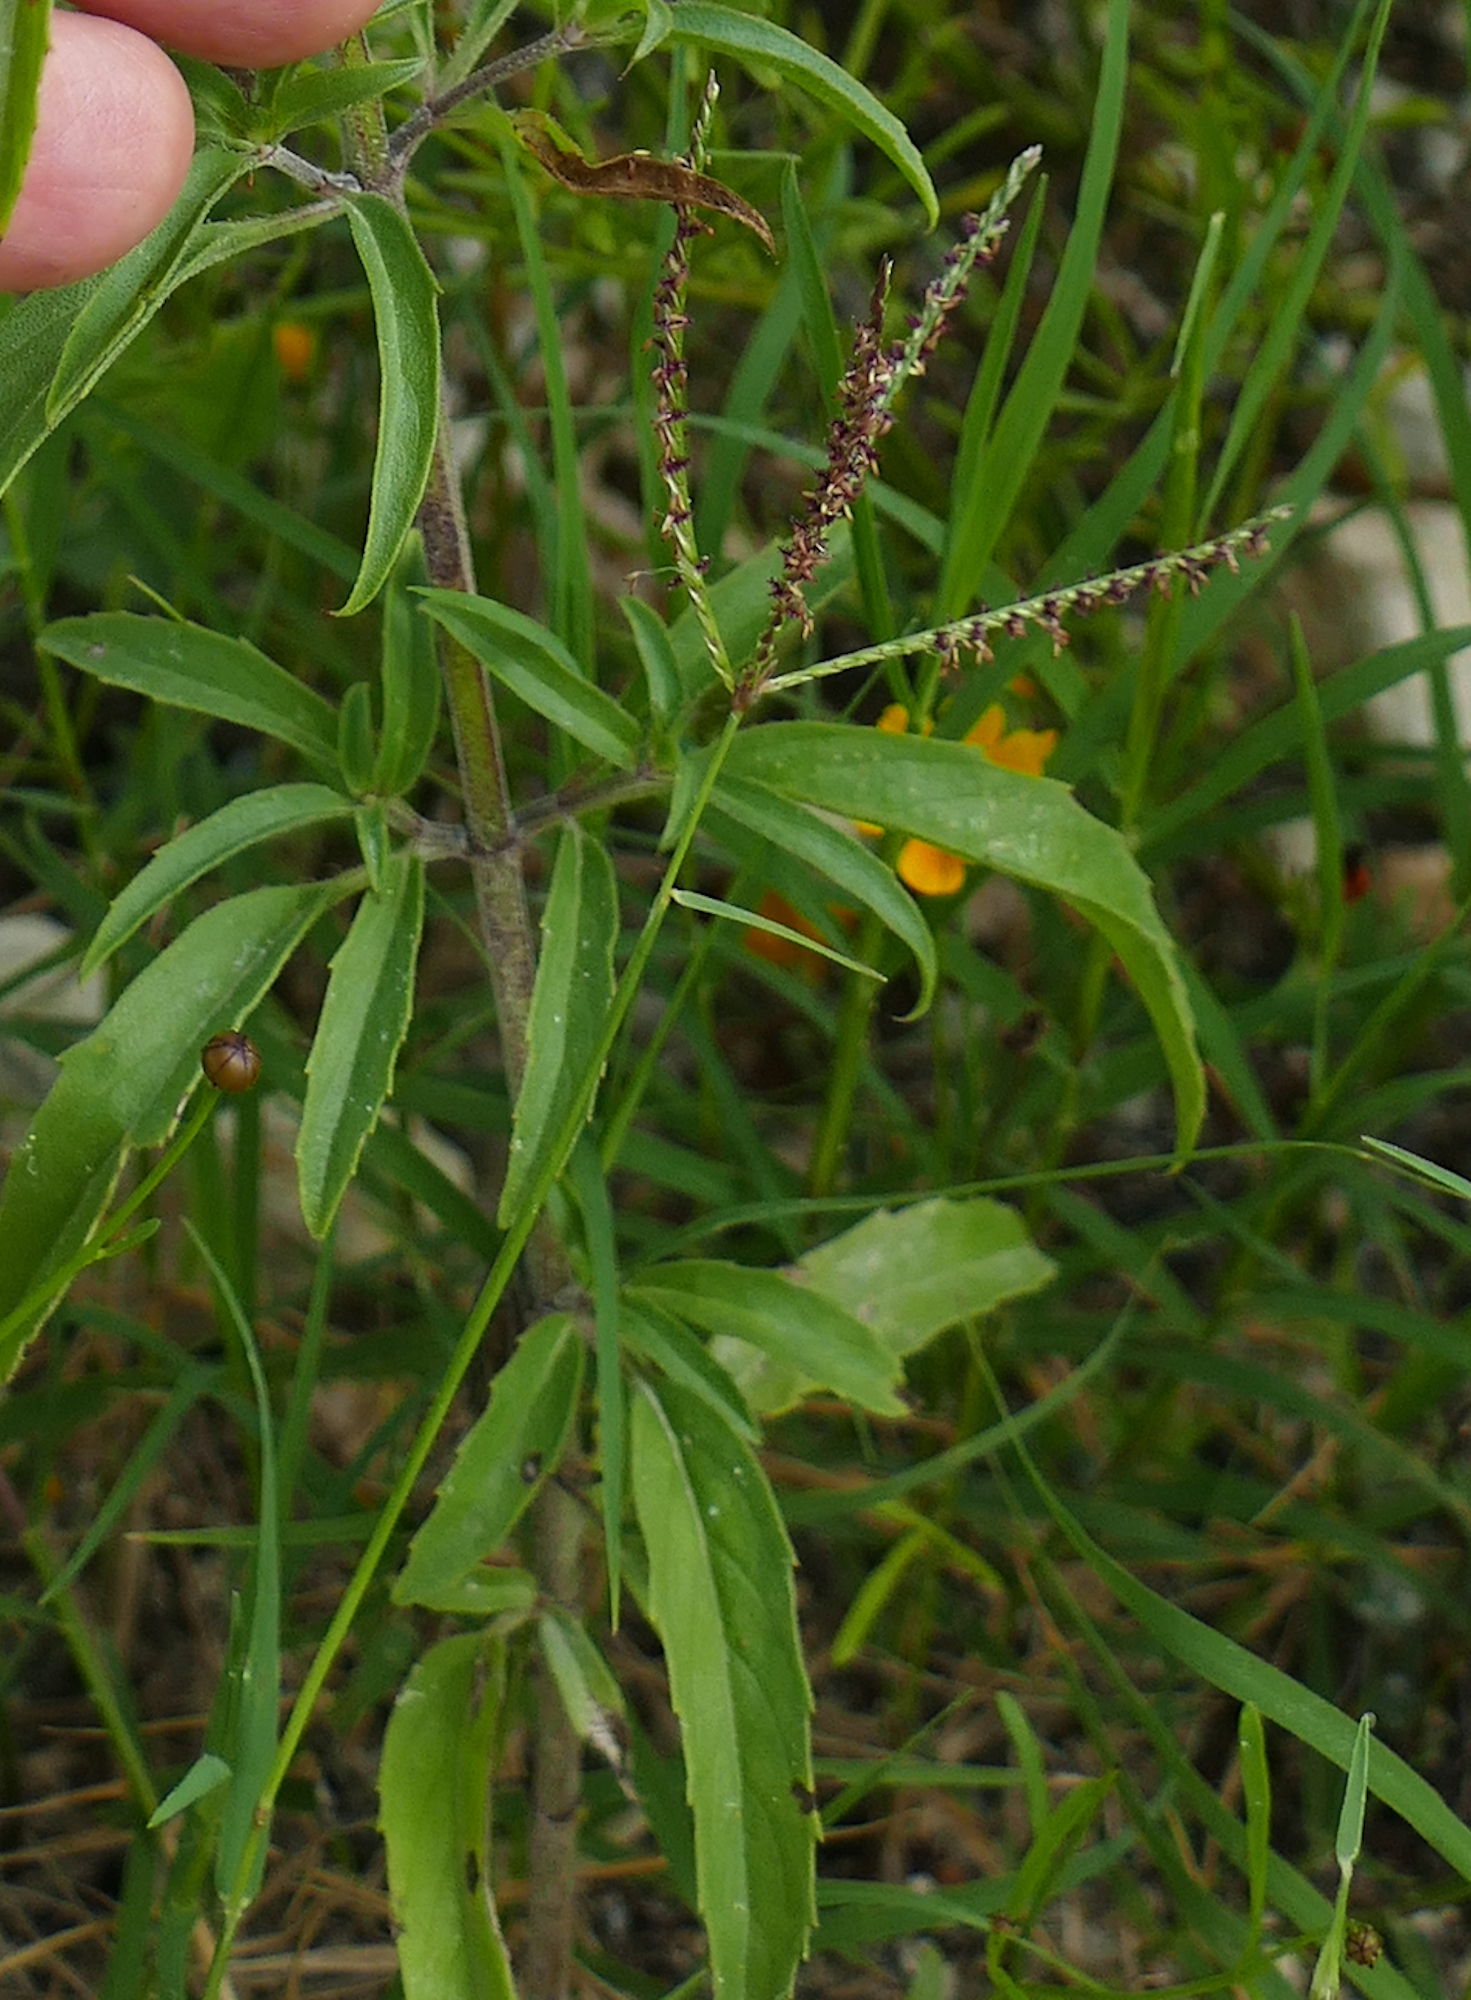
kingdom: Plantae
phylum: Tracheophyta
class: Liliopsida
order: Poales
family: Poaceae
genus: Cynodon
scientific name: Cynodon dactylon
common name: Bermuda grass
